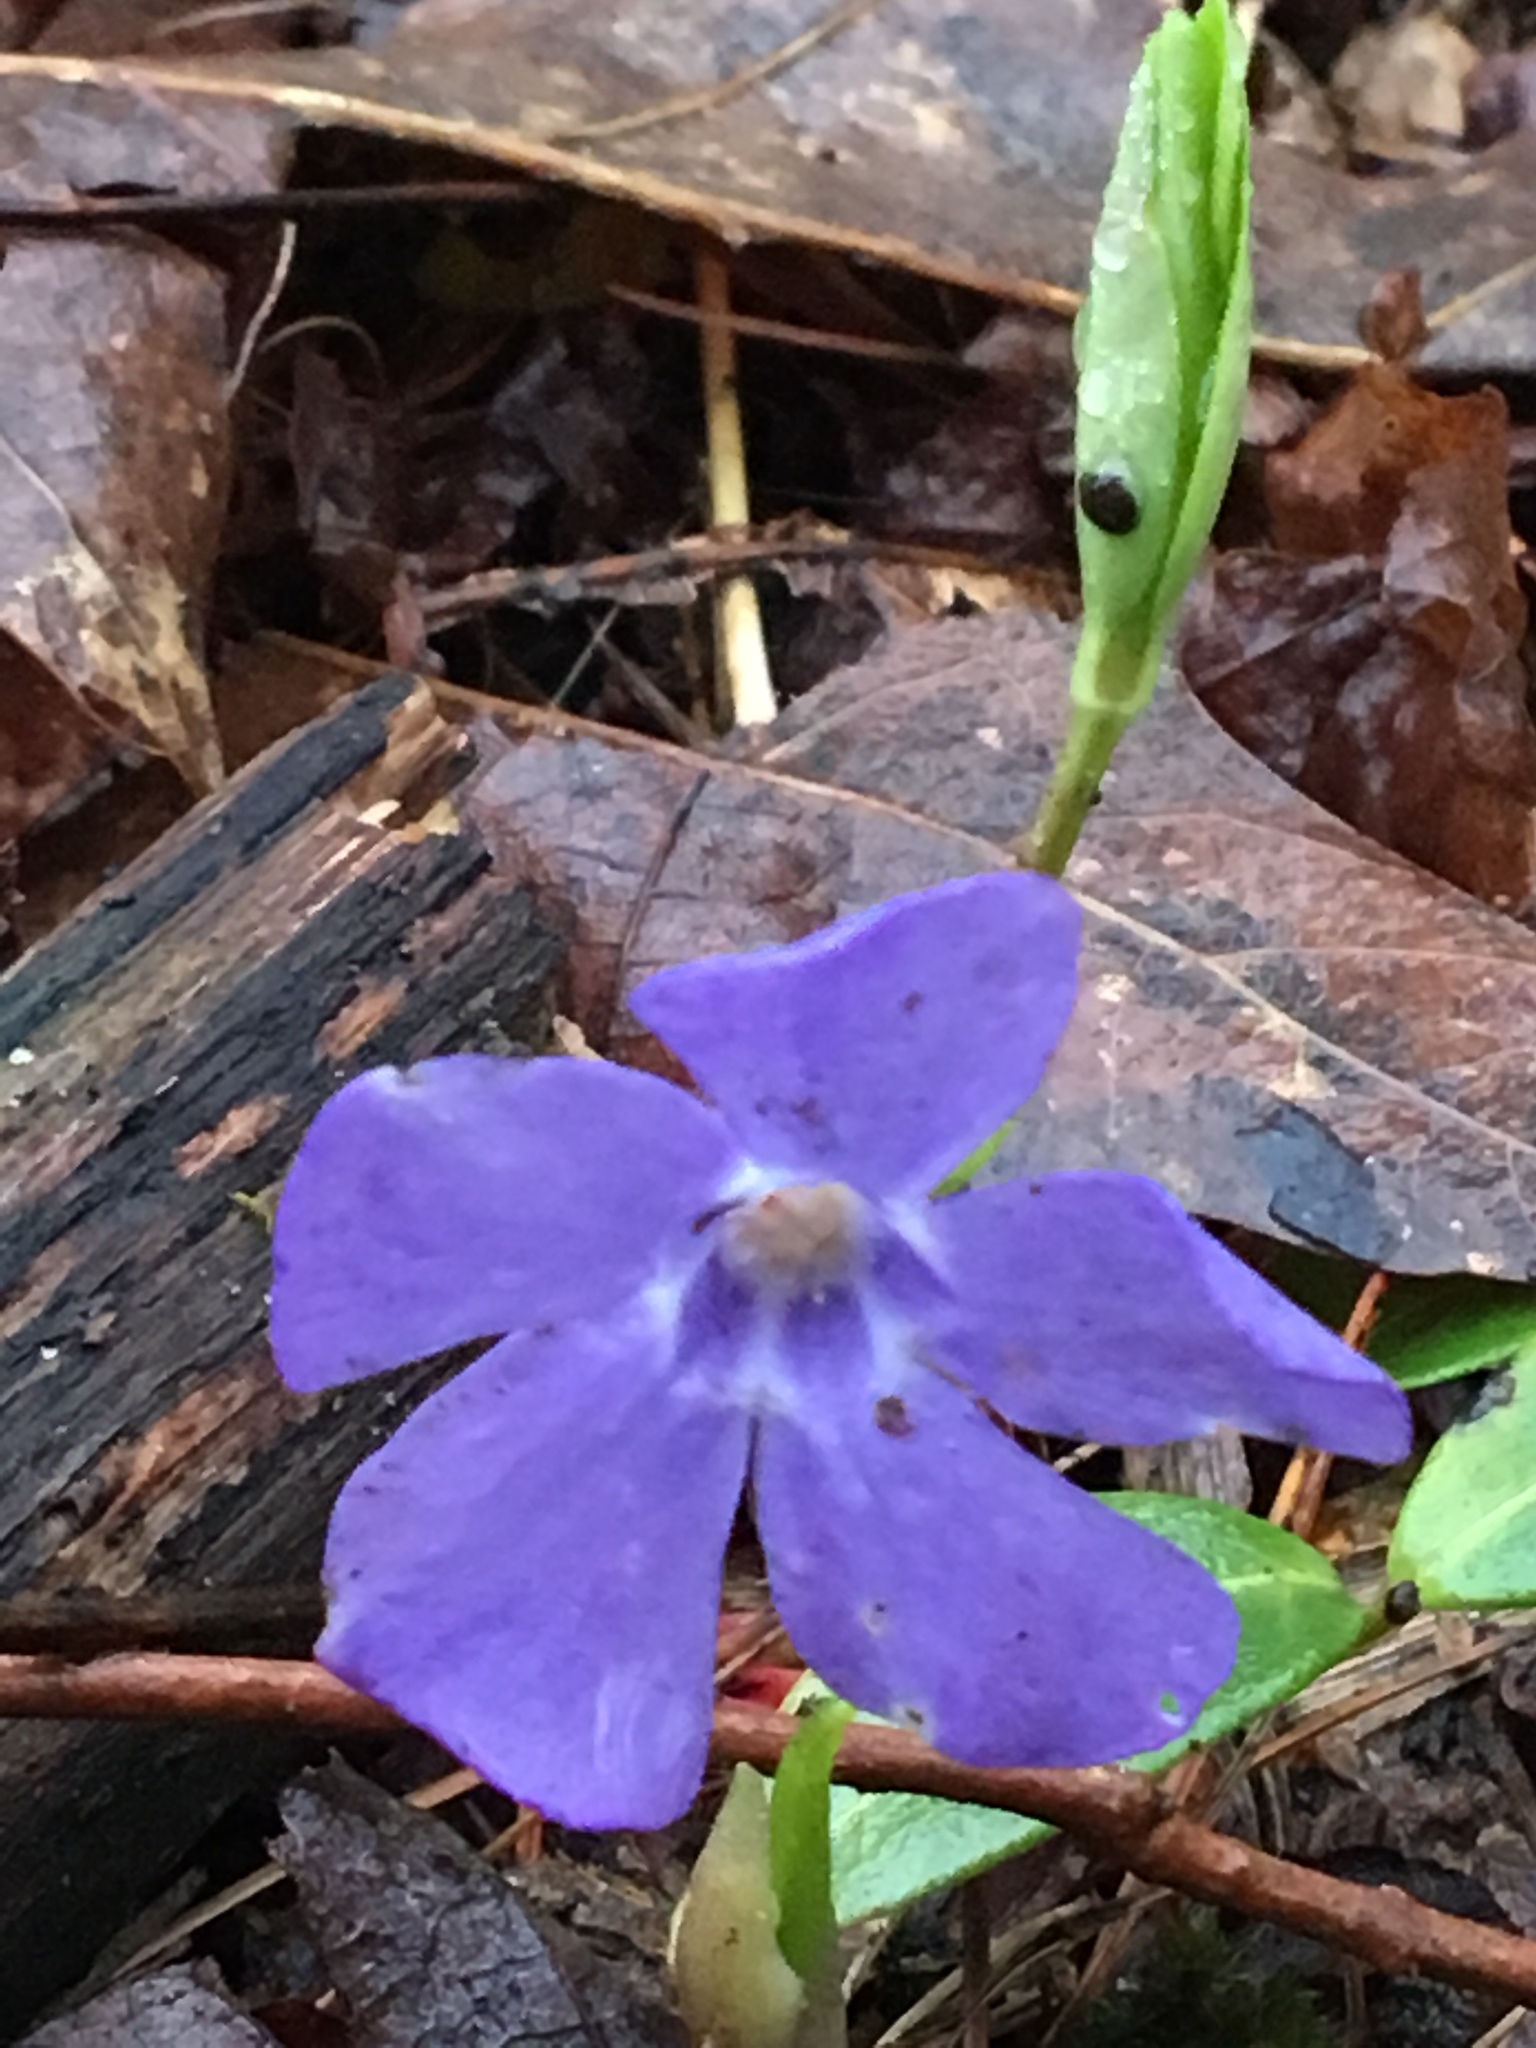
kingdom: Plantae
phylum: Tracheophyta
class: Magnoliopsida
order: Gentianales
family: Apocynaceae
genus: Vinca
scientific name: Vinca minor
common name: Lesser periwinkle
